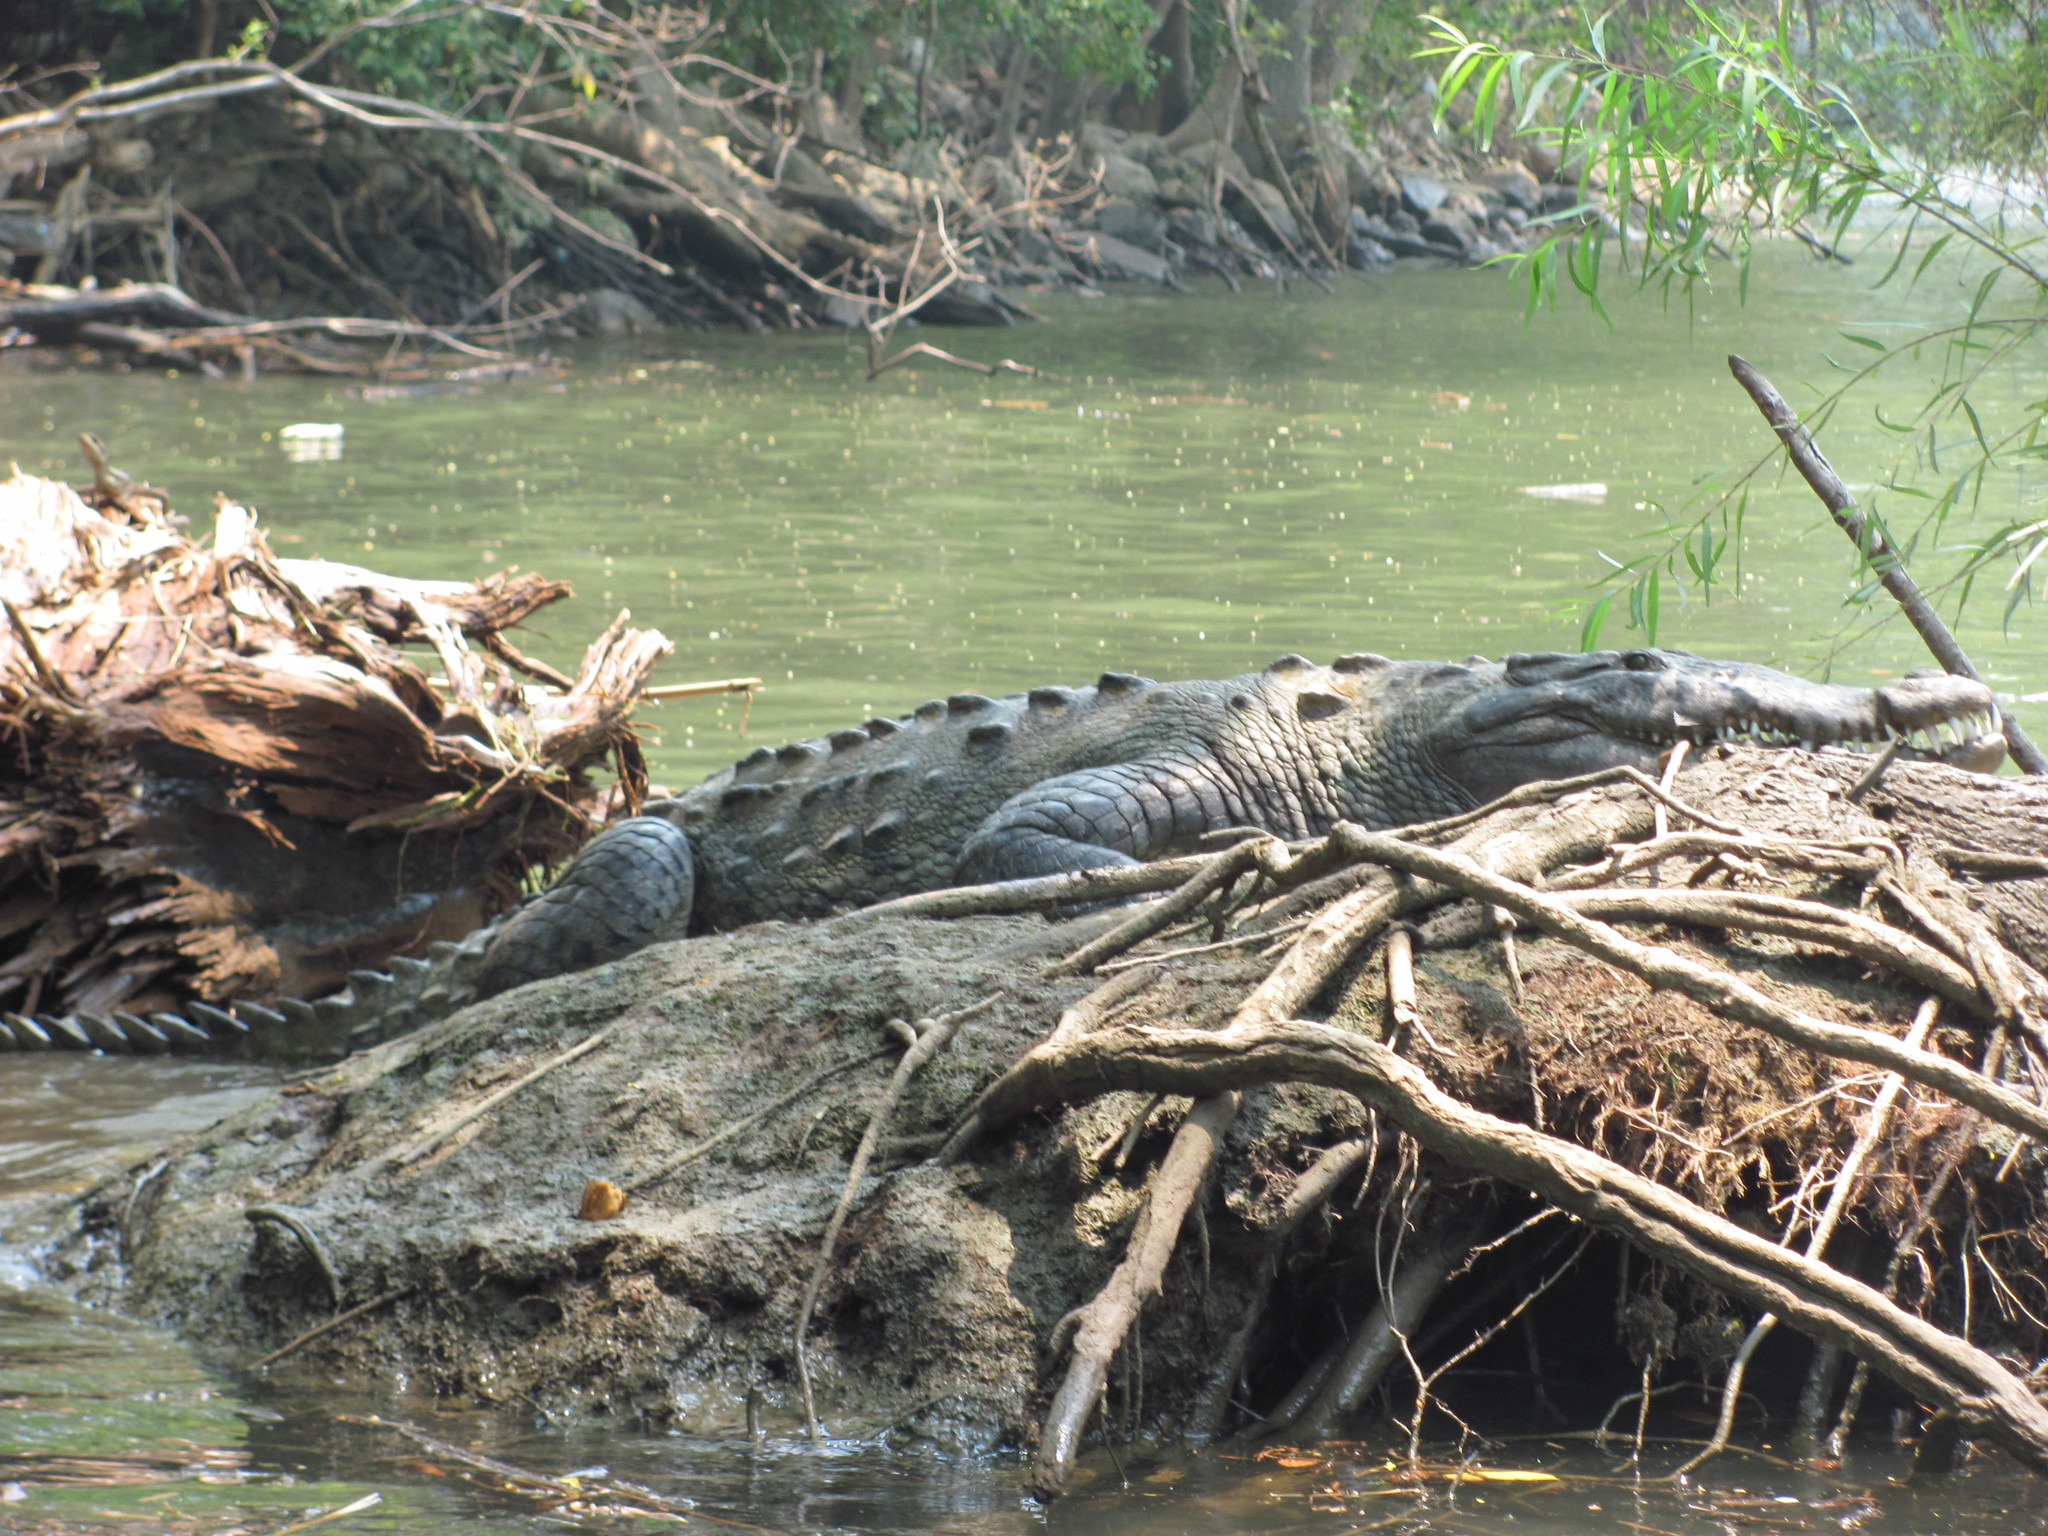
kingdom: Animalia
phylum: Chordata
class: Crocodylia
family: Crocodylidae
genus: Crocodylus
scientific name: Crocodylus acutus
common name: American crocodile
